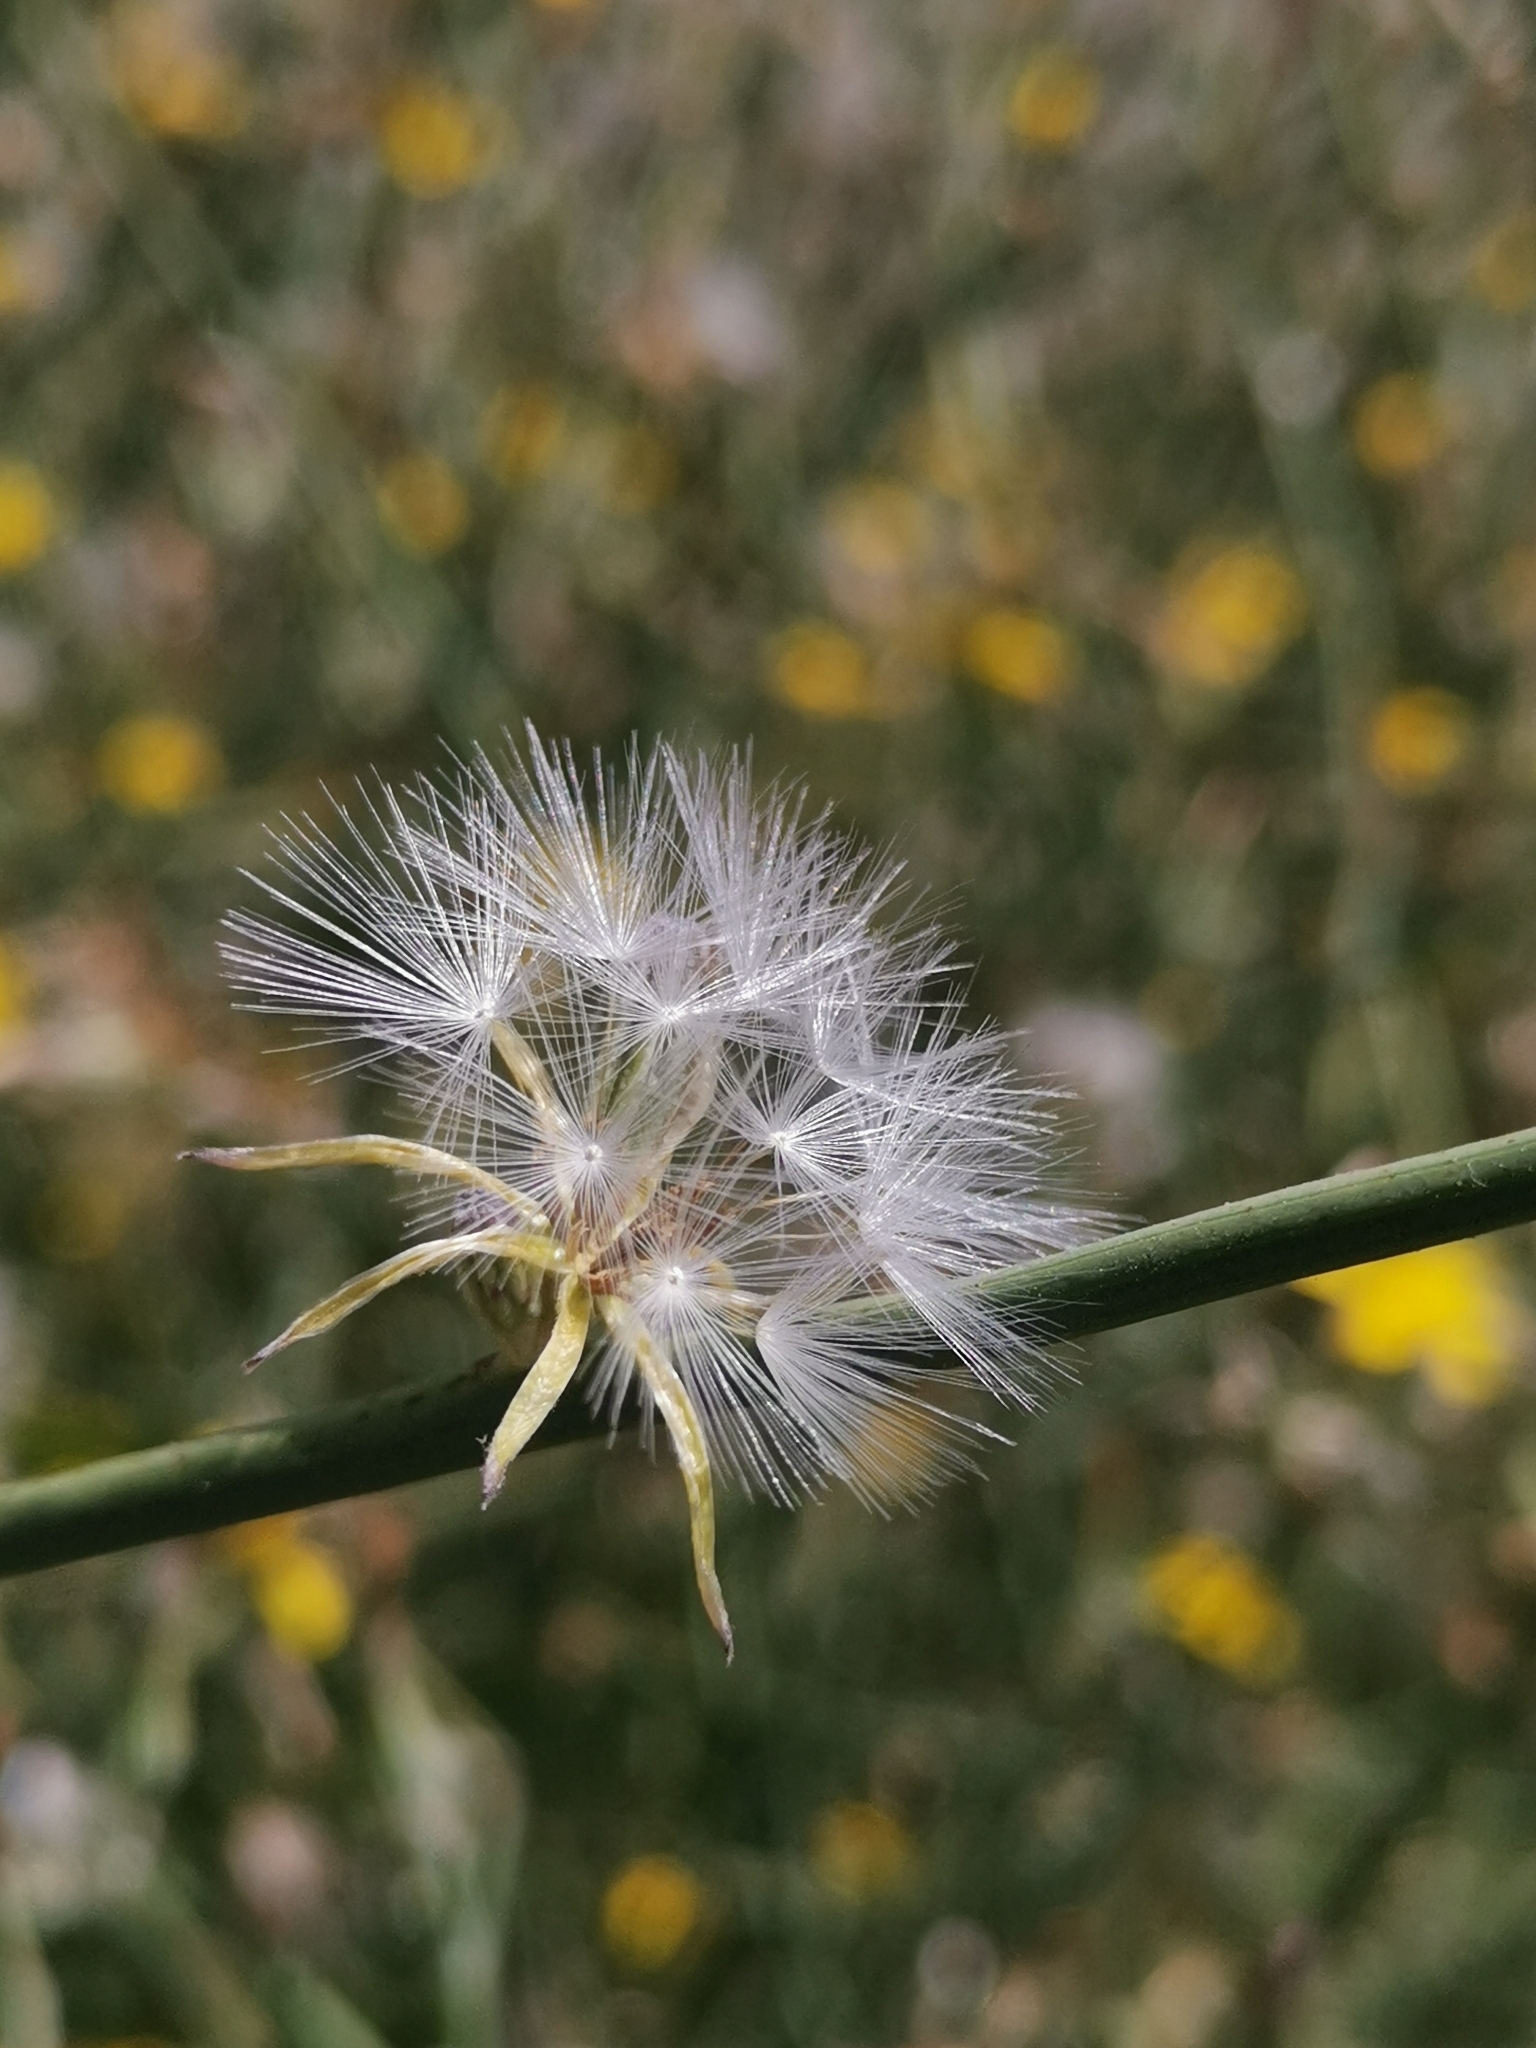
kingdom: Plantae
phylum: Tracheophyta
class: Magnoliopsida
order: Asterales
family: Asteraceae
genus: Chondrilla
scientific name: Chondrilla juncea
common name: Skeleton weed
